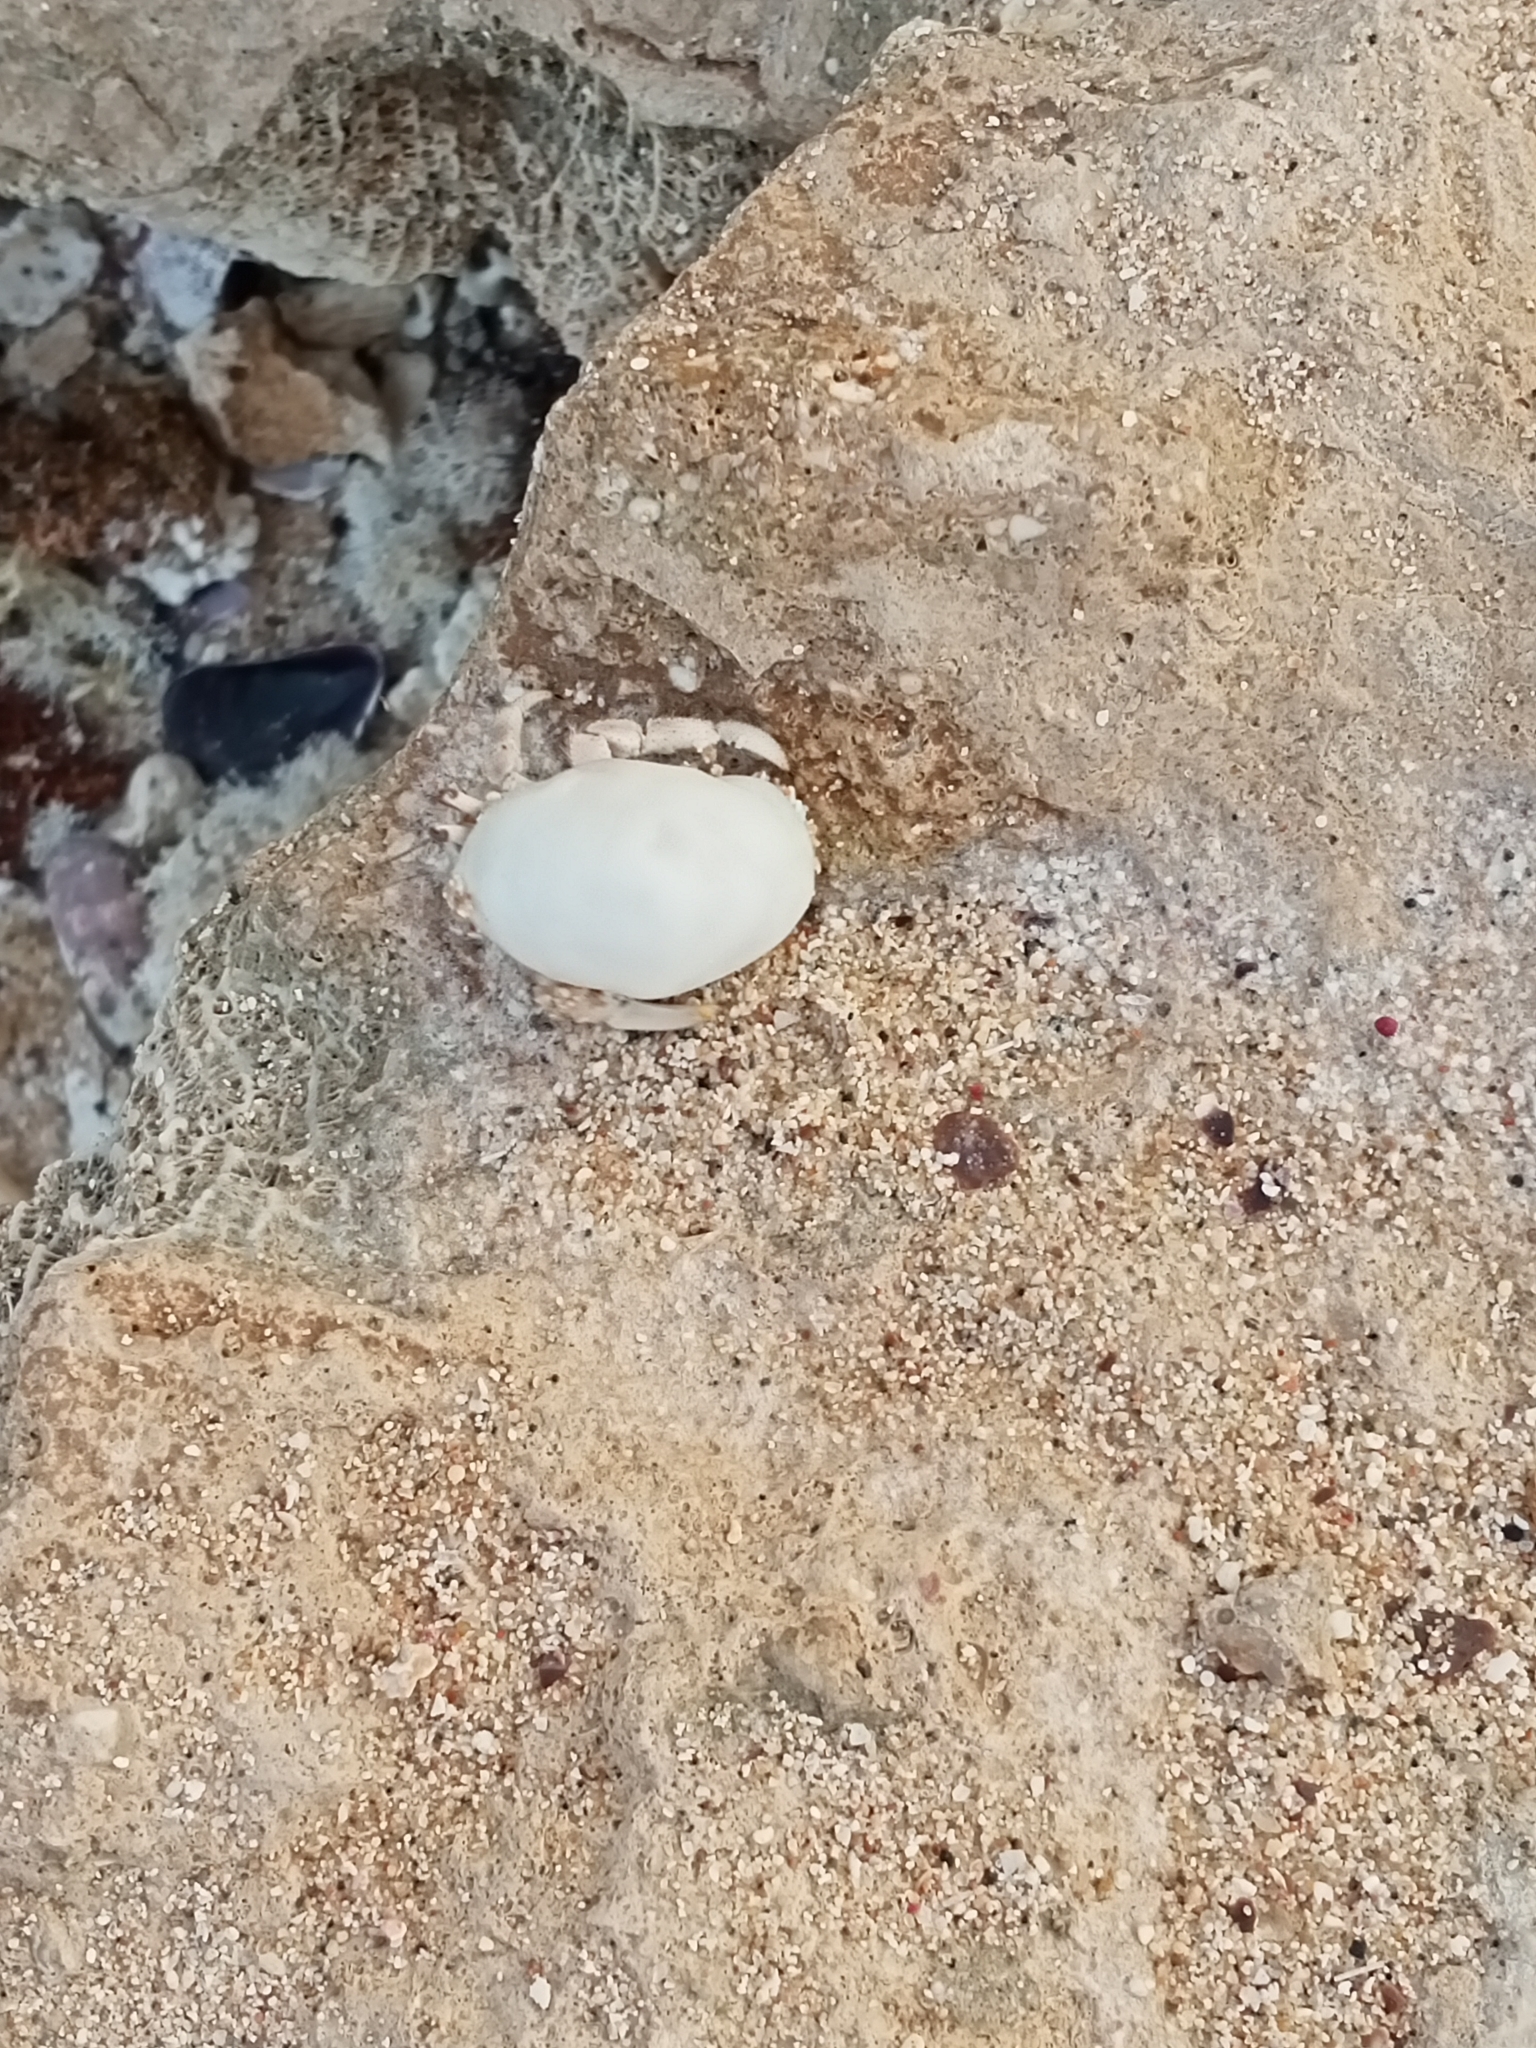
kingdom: Animalia
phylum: Arthropoda
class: Malacostraca
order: Decapoda
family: Coenobitidae
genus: Coenobita
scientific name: Coenobita scaevola
